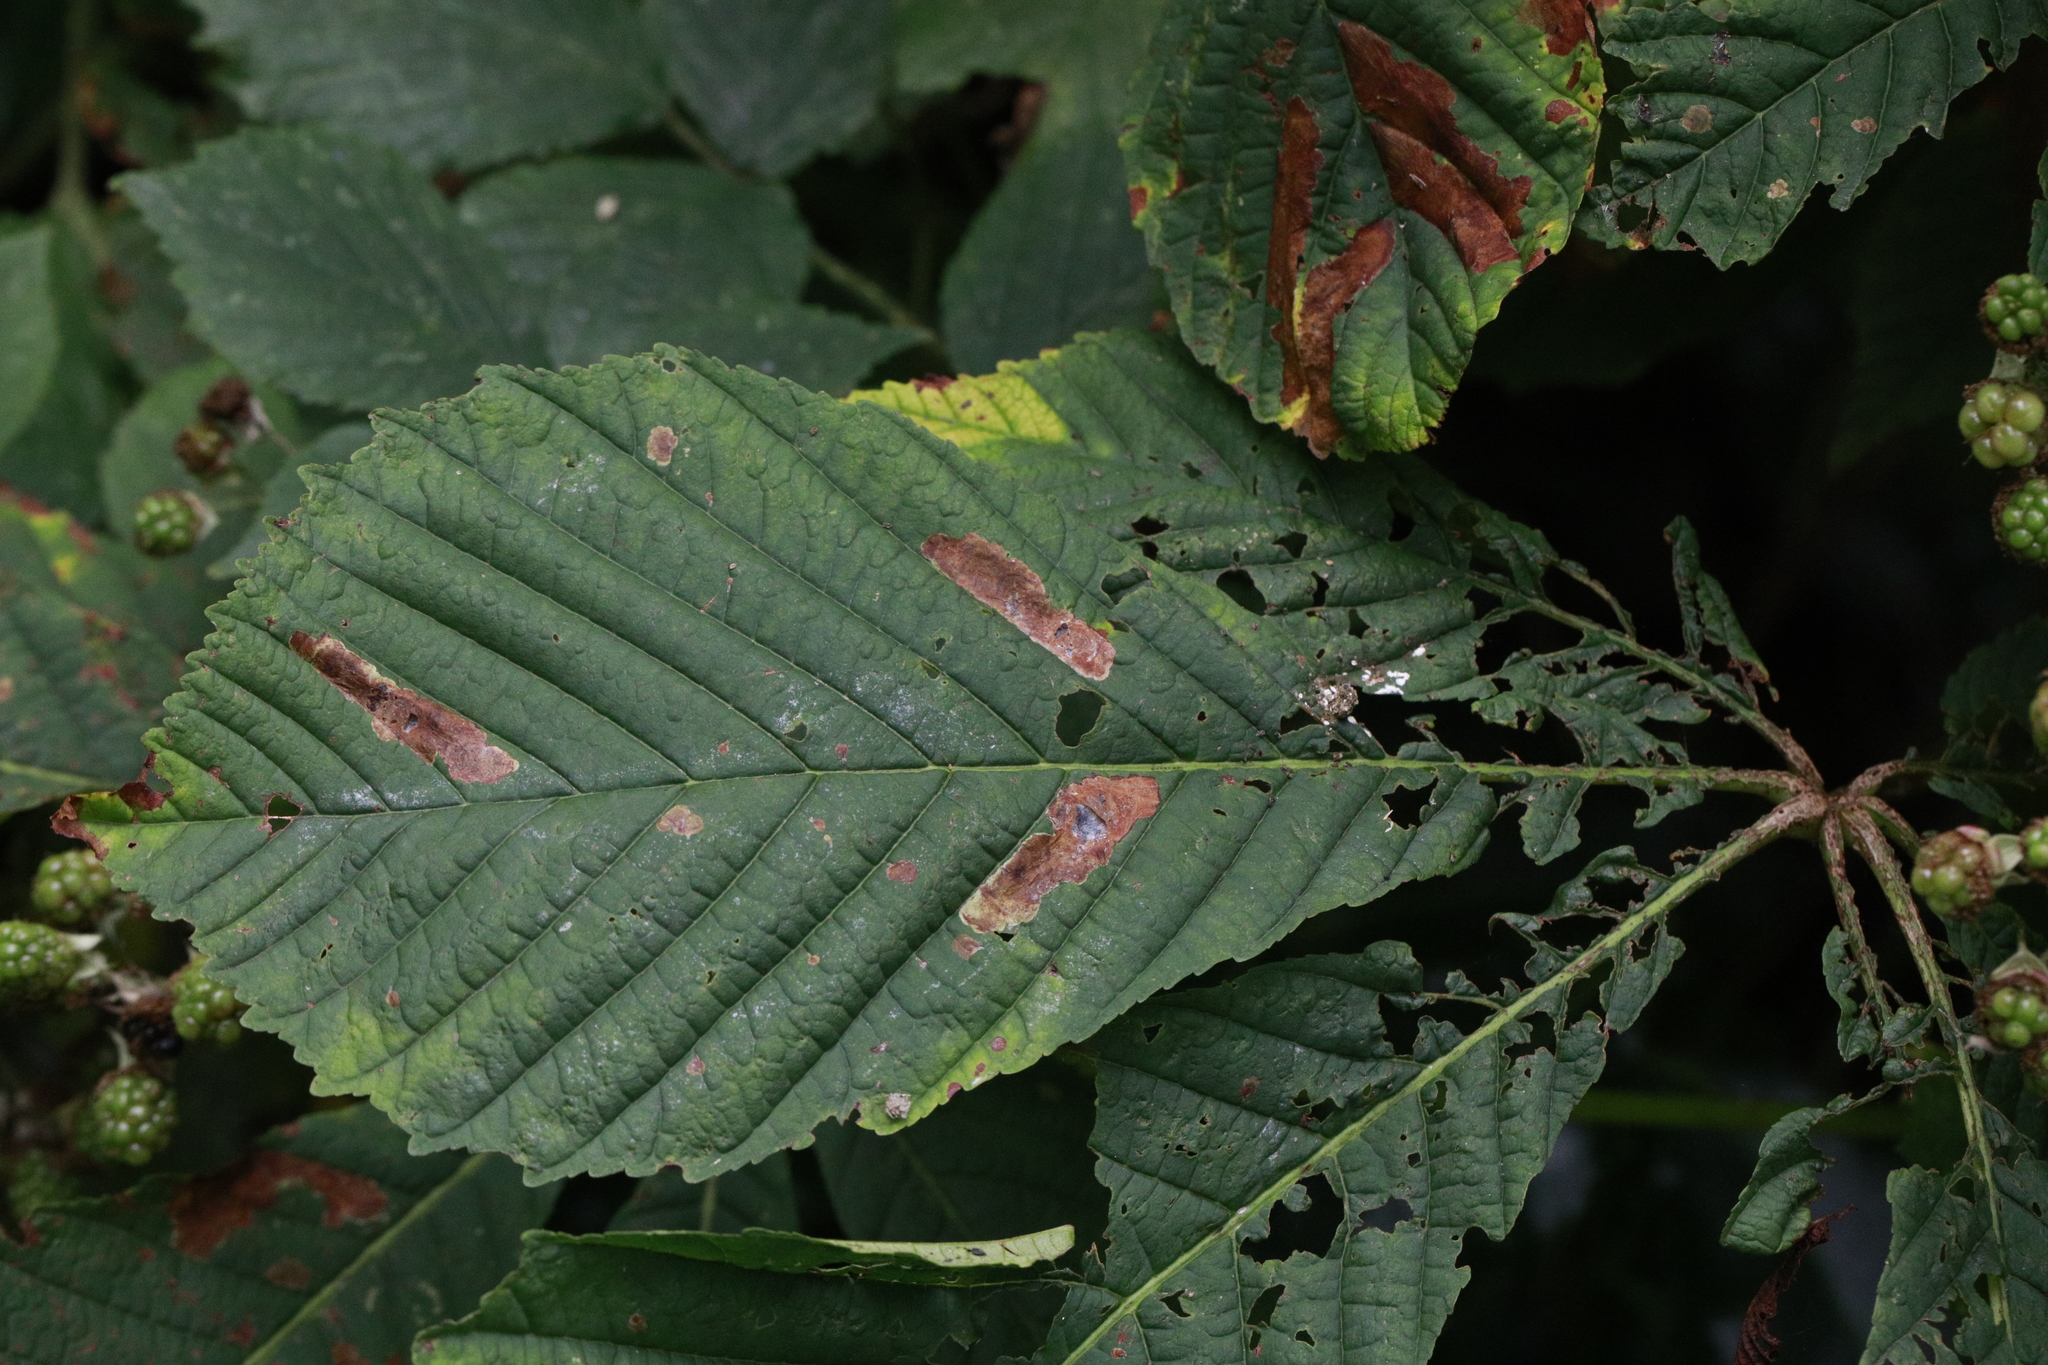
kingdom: Animalia
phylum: Arthropoda
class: Insecta
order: Lepidoptera
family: Gracillariidae
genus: Cameraria
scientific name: Cameraria ohridella
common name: Horse-chestnut leaf-miner
